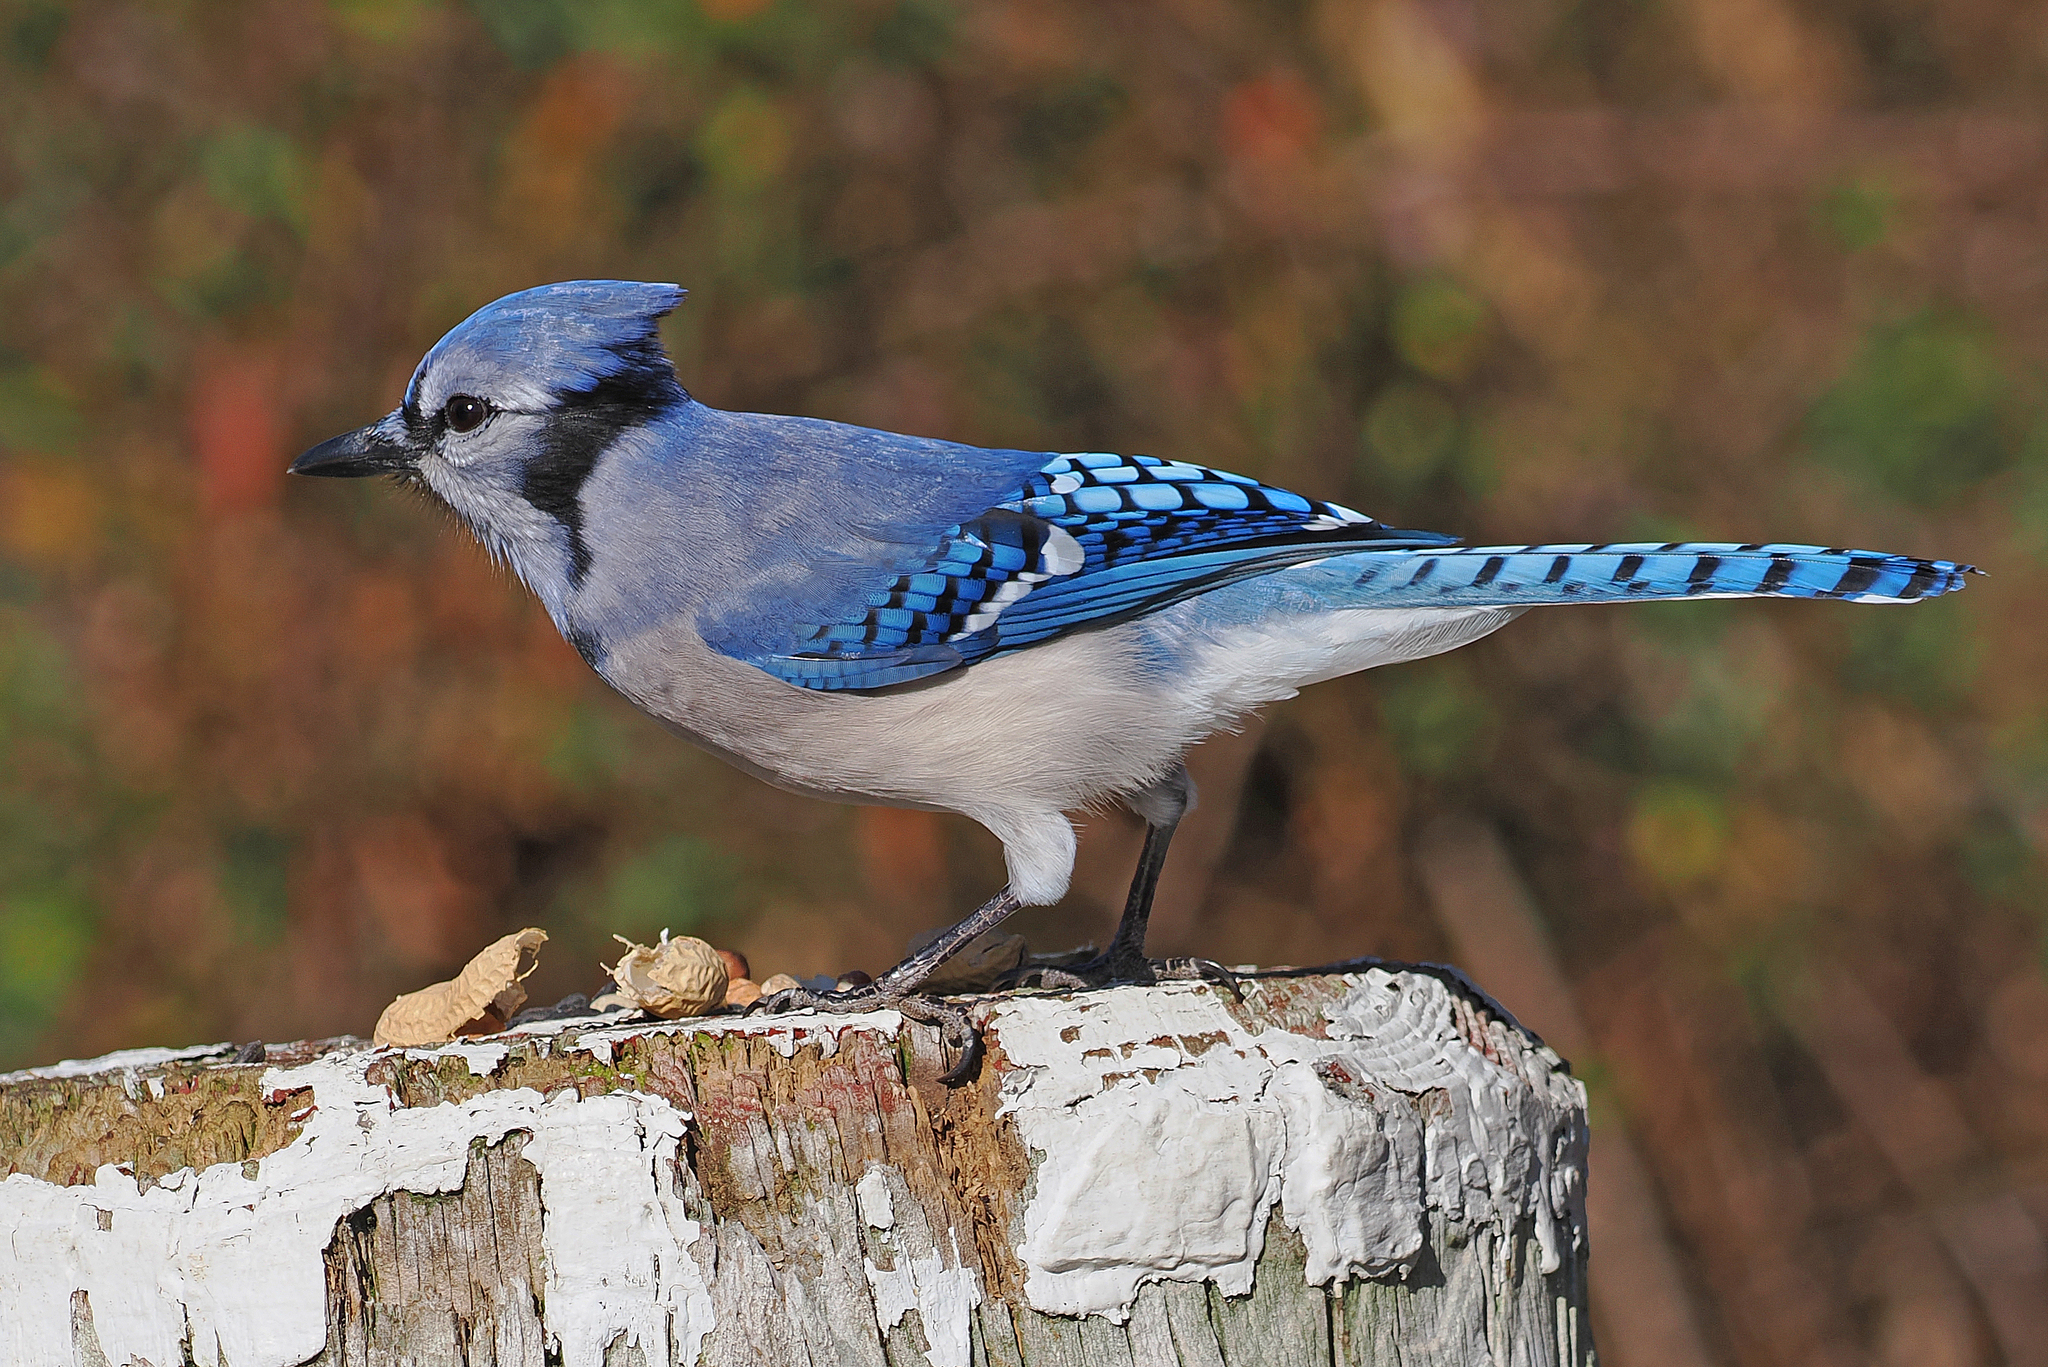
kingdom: Animalia
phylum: Chordata
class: Aves
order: Passeriformes
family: Corvidae
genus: Cyanocitta
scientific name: Cyanocitta cristata
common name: Blue jay
